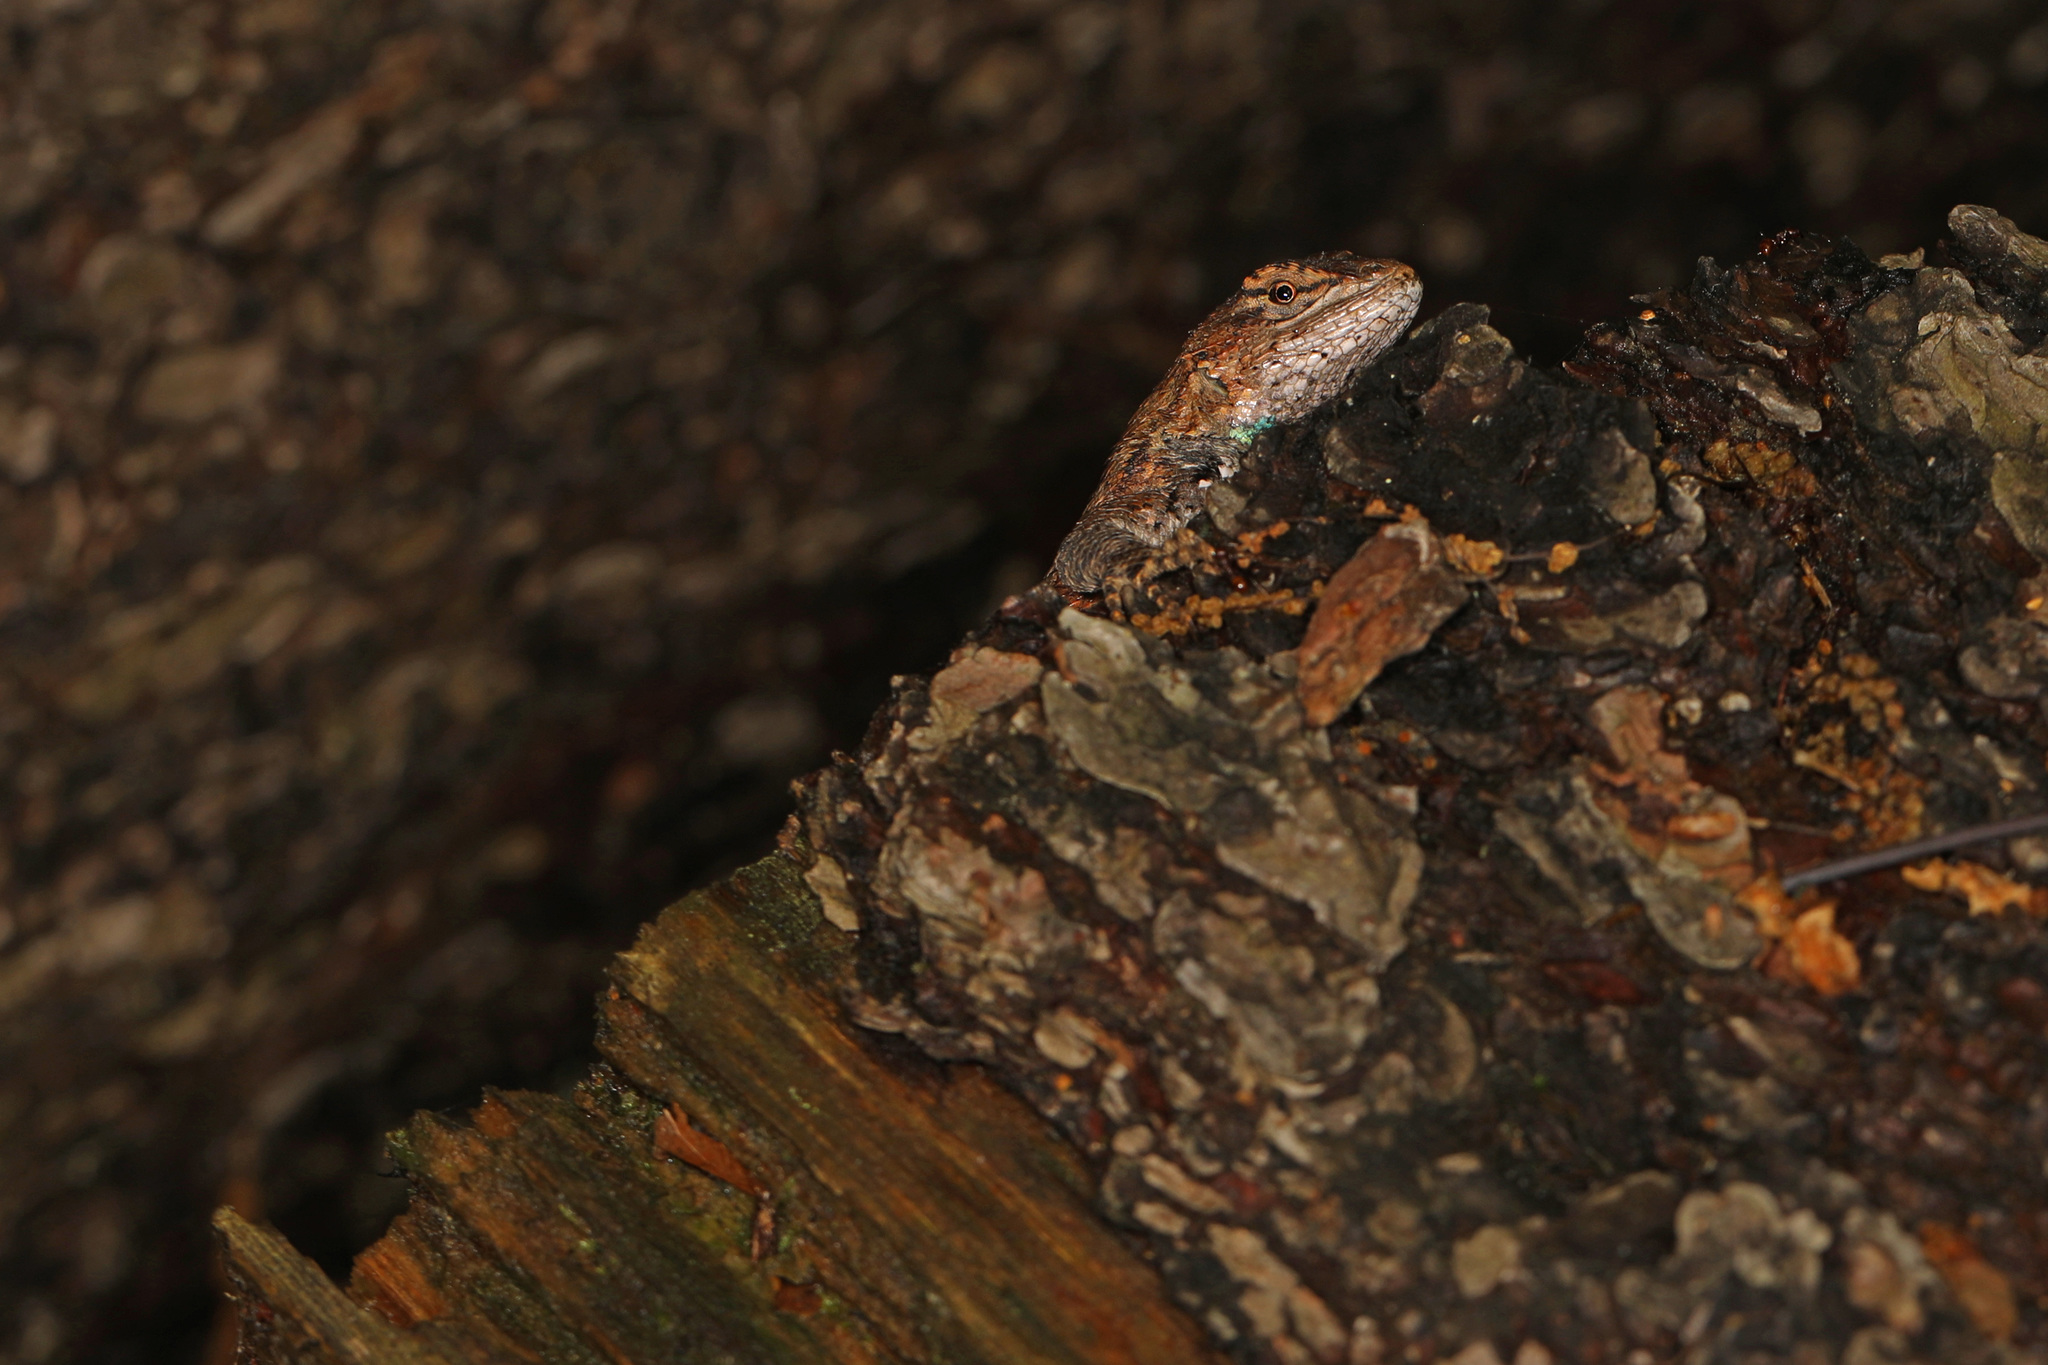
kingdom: Animalia
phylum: Chordata
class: Squamata
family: Phrynosomatidae
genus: Sceloporus
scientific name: Sceloporus undulatus
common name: Eastern fence lizard
